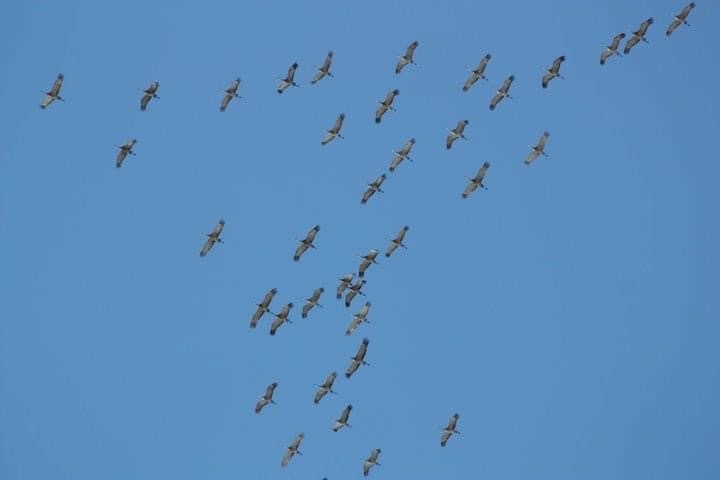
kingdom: Animalia
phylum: Chordata
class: Aves
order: Gruiformes
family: Gruidae
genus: Grus
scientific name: Grus canadensis
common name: Sandhill crane
